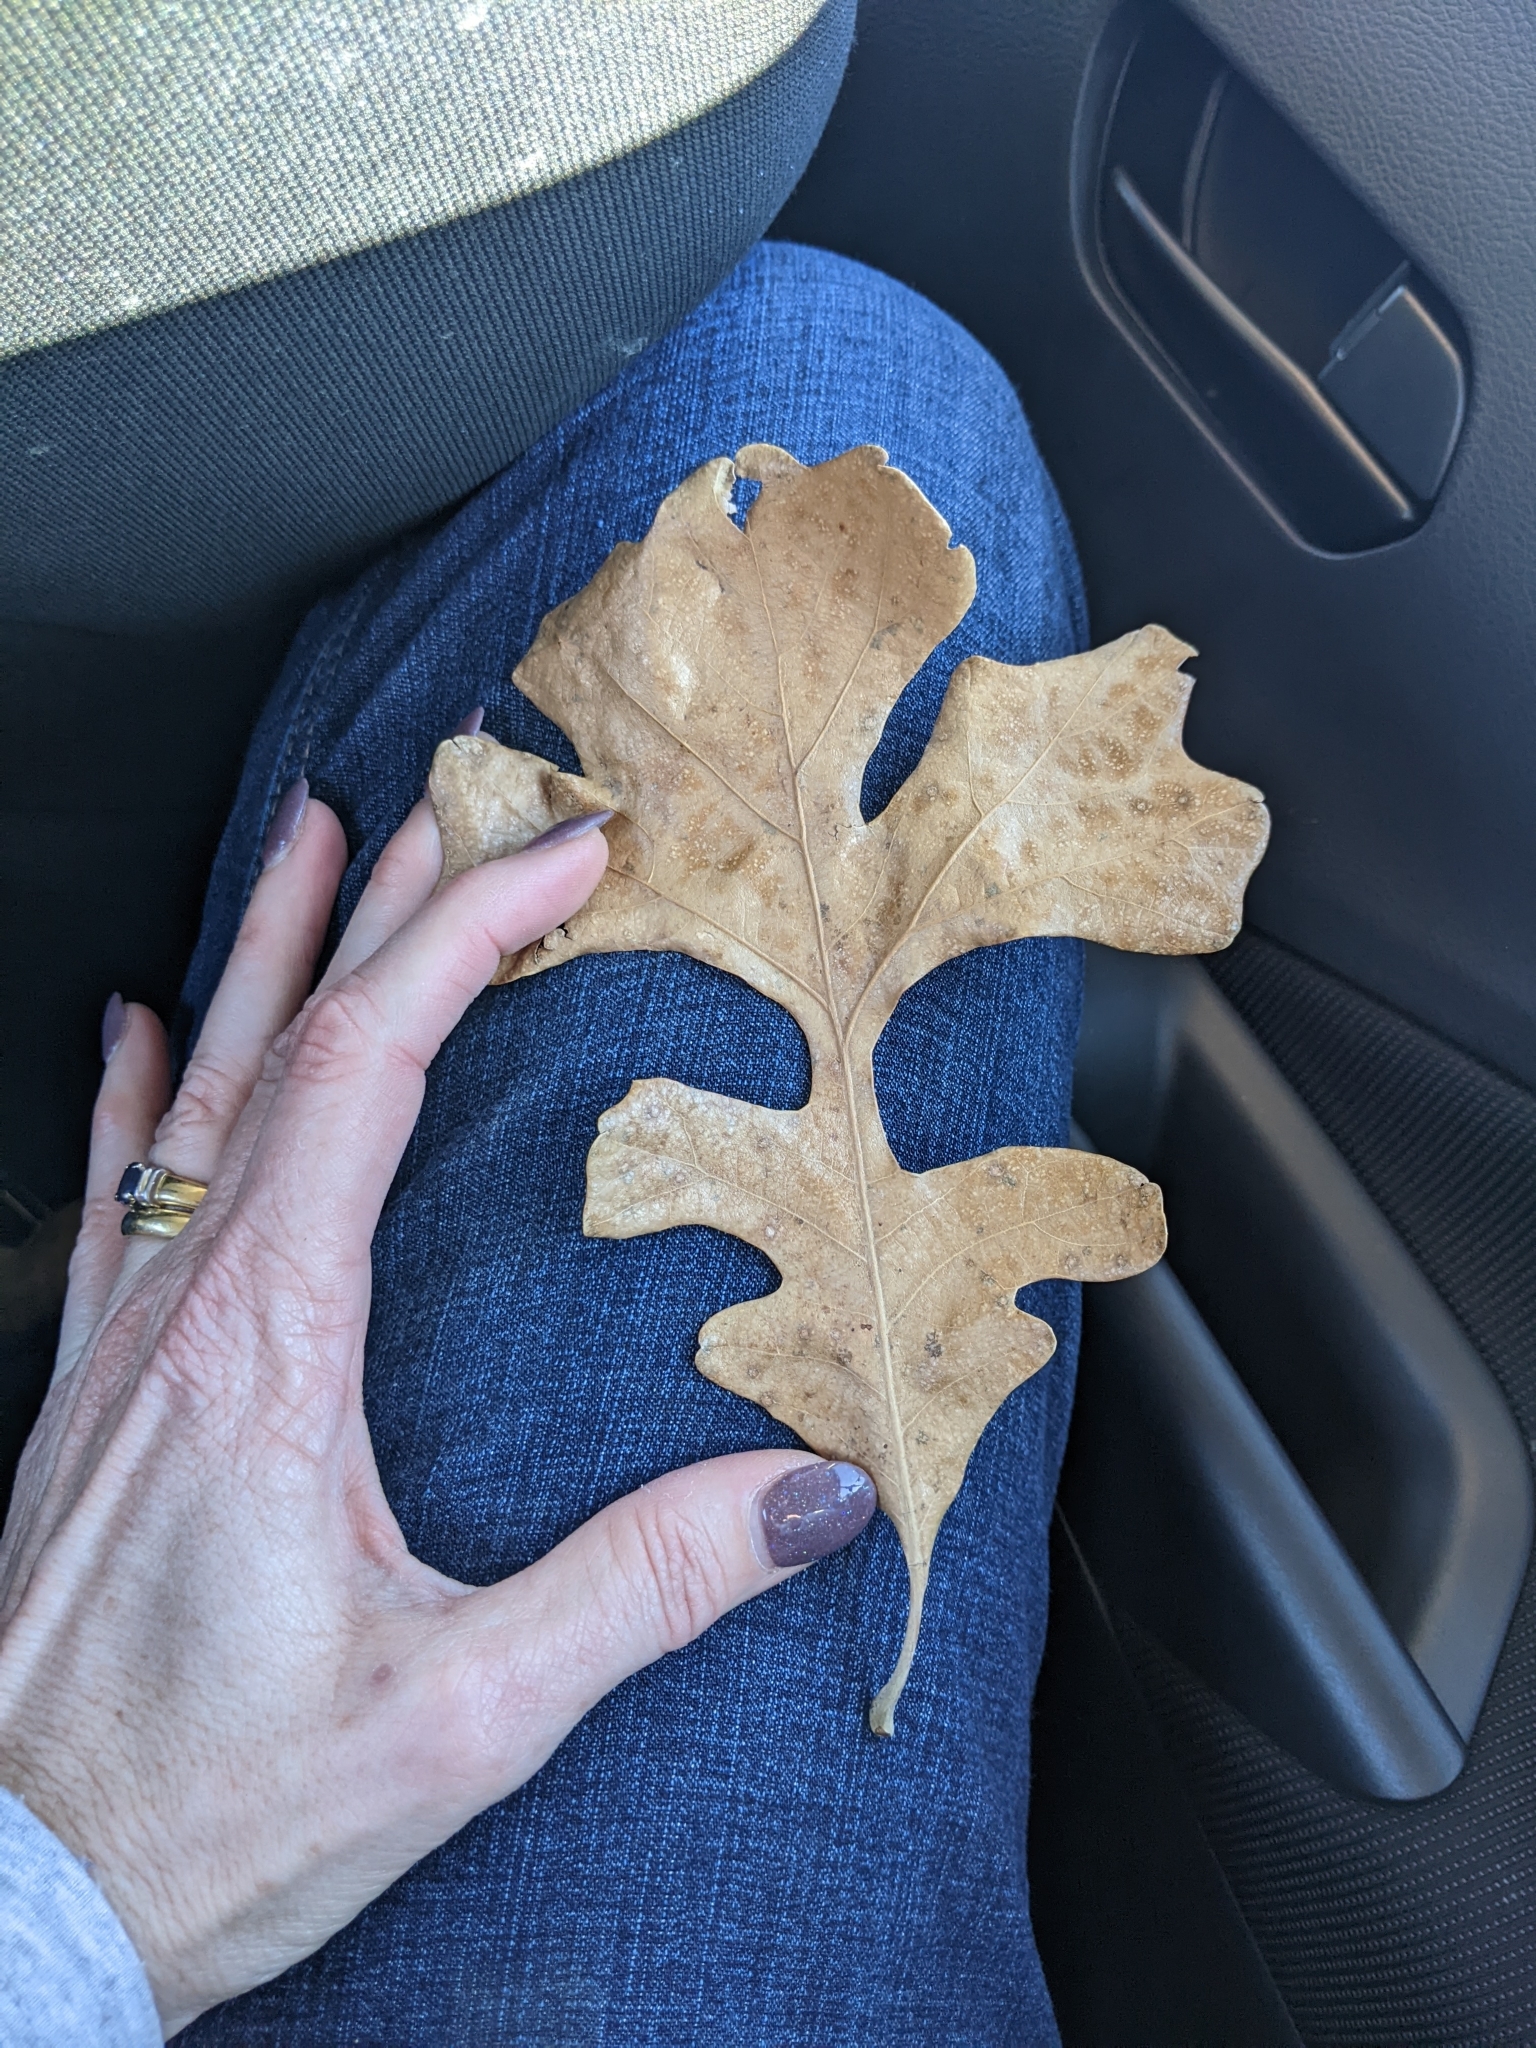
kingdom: Plantae
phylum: Tracheophyta
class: Magnoliopsida
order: Fagales
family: Fagaceae
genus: Quercus
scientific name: Quercus macrocarpa
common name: Bur oak
